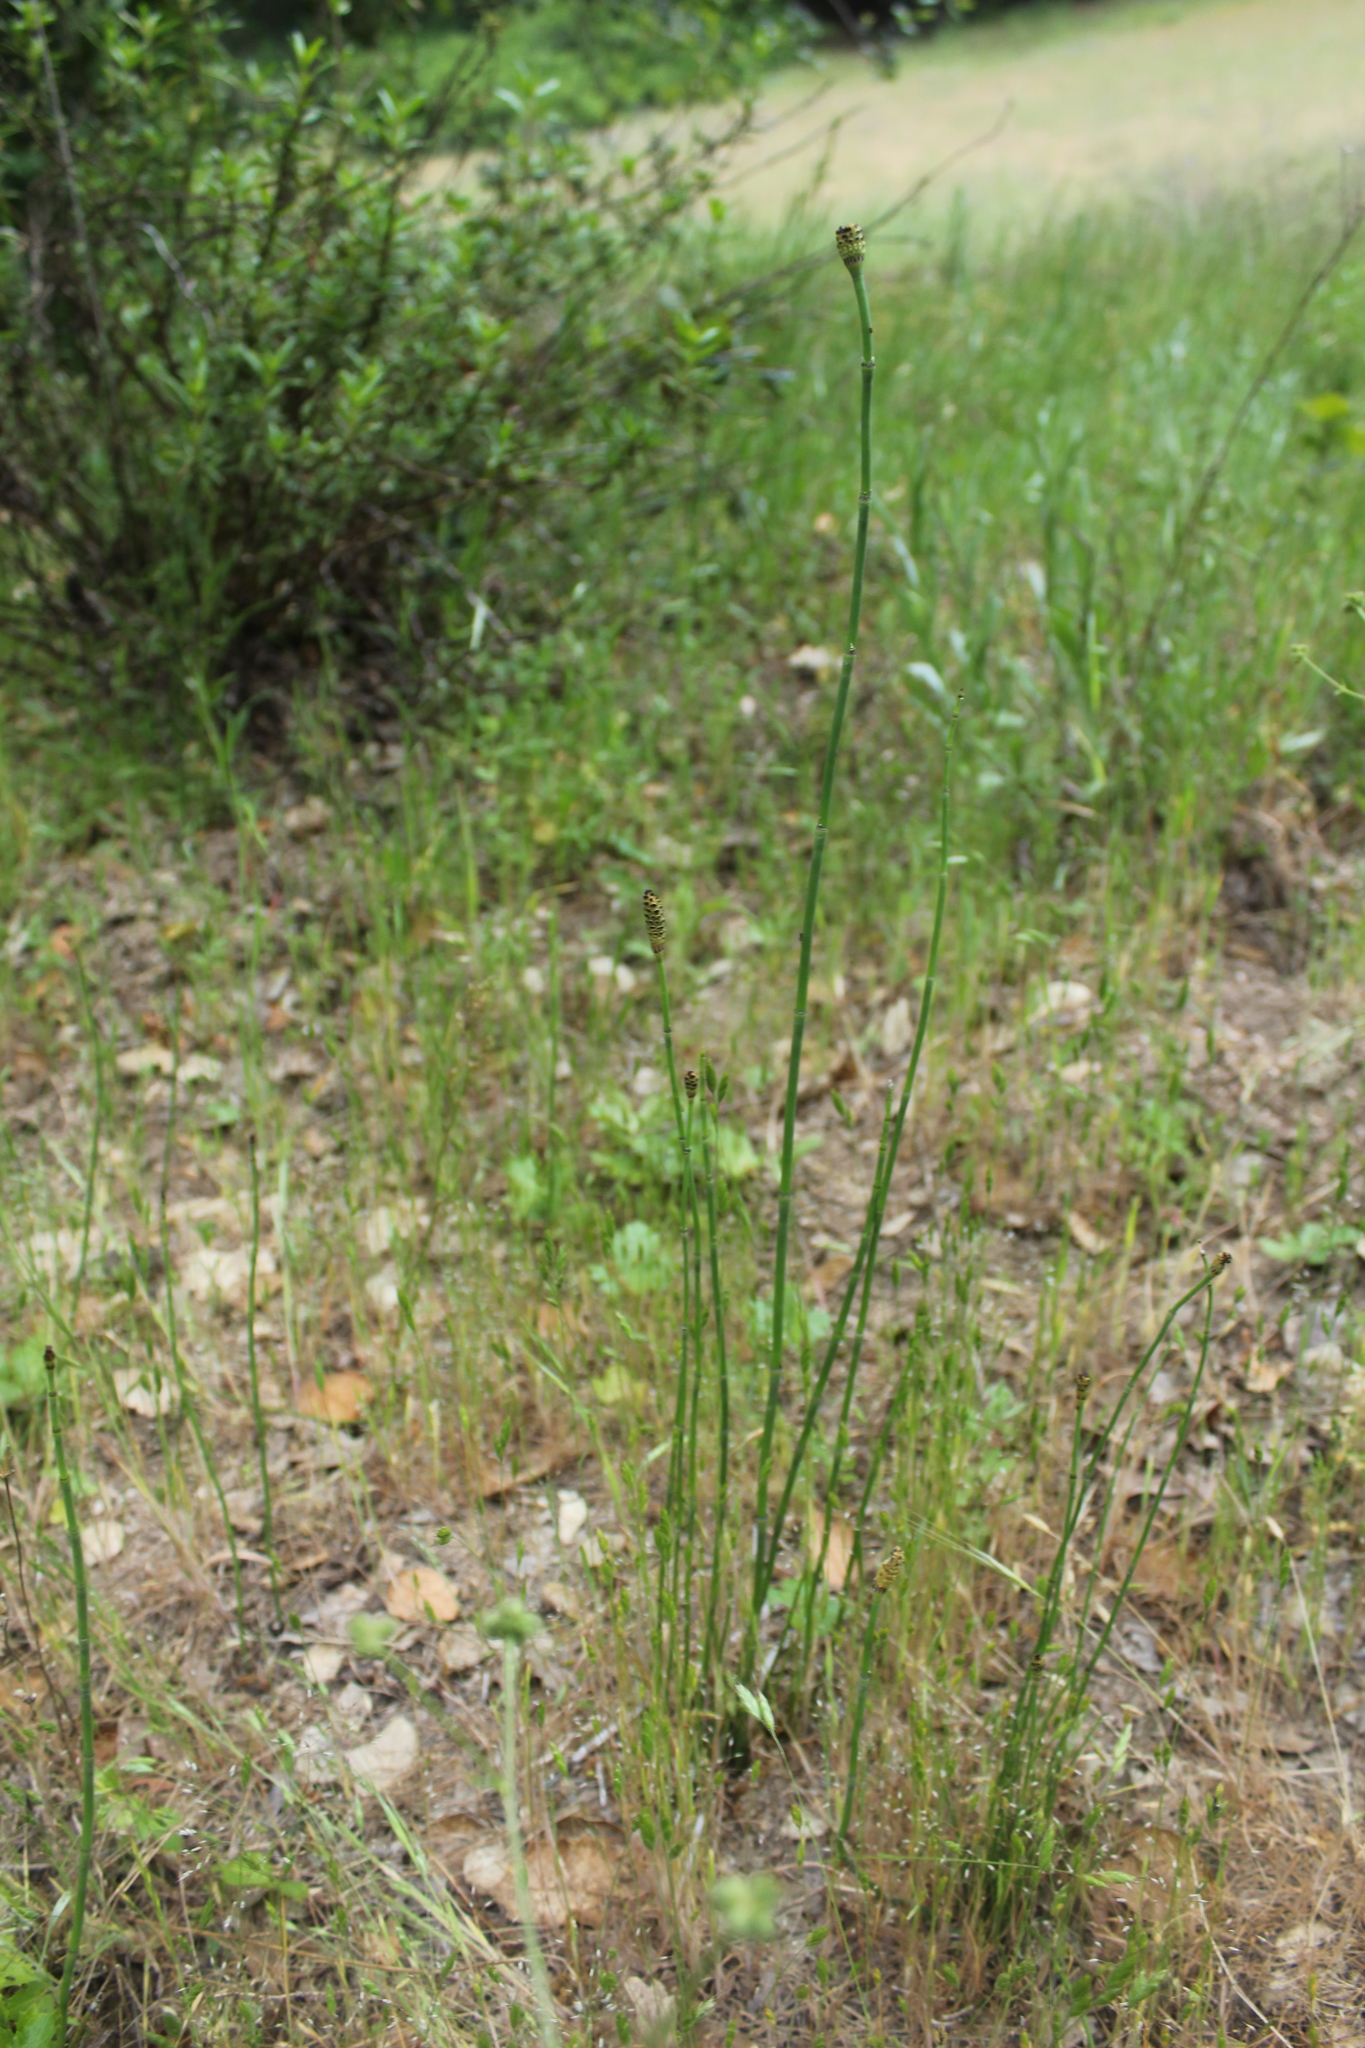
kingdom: Plantae
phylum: Tracheophyta
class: Polypodiopsida
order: Equisetales
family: Equisetaceae
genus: Equisetum
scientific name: Equisetum laevigatum
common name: Smooth scouring-rush
